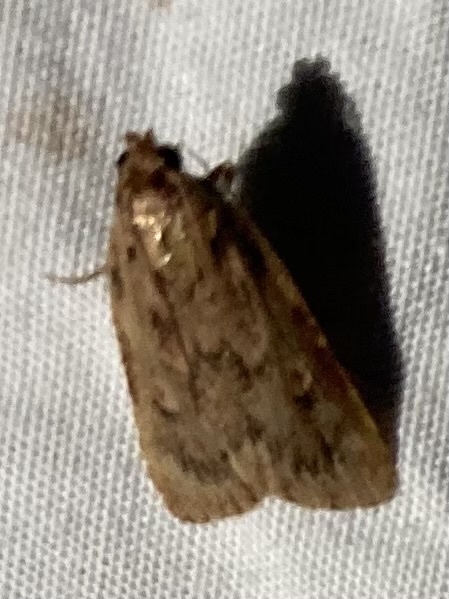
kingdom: Animalia
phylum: Arthropoda
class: Insecta
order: Lepidoptera
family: Pyralidae
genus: Aglossa
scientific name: Aglossa cuprina
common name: Grease moth
